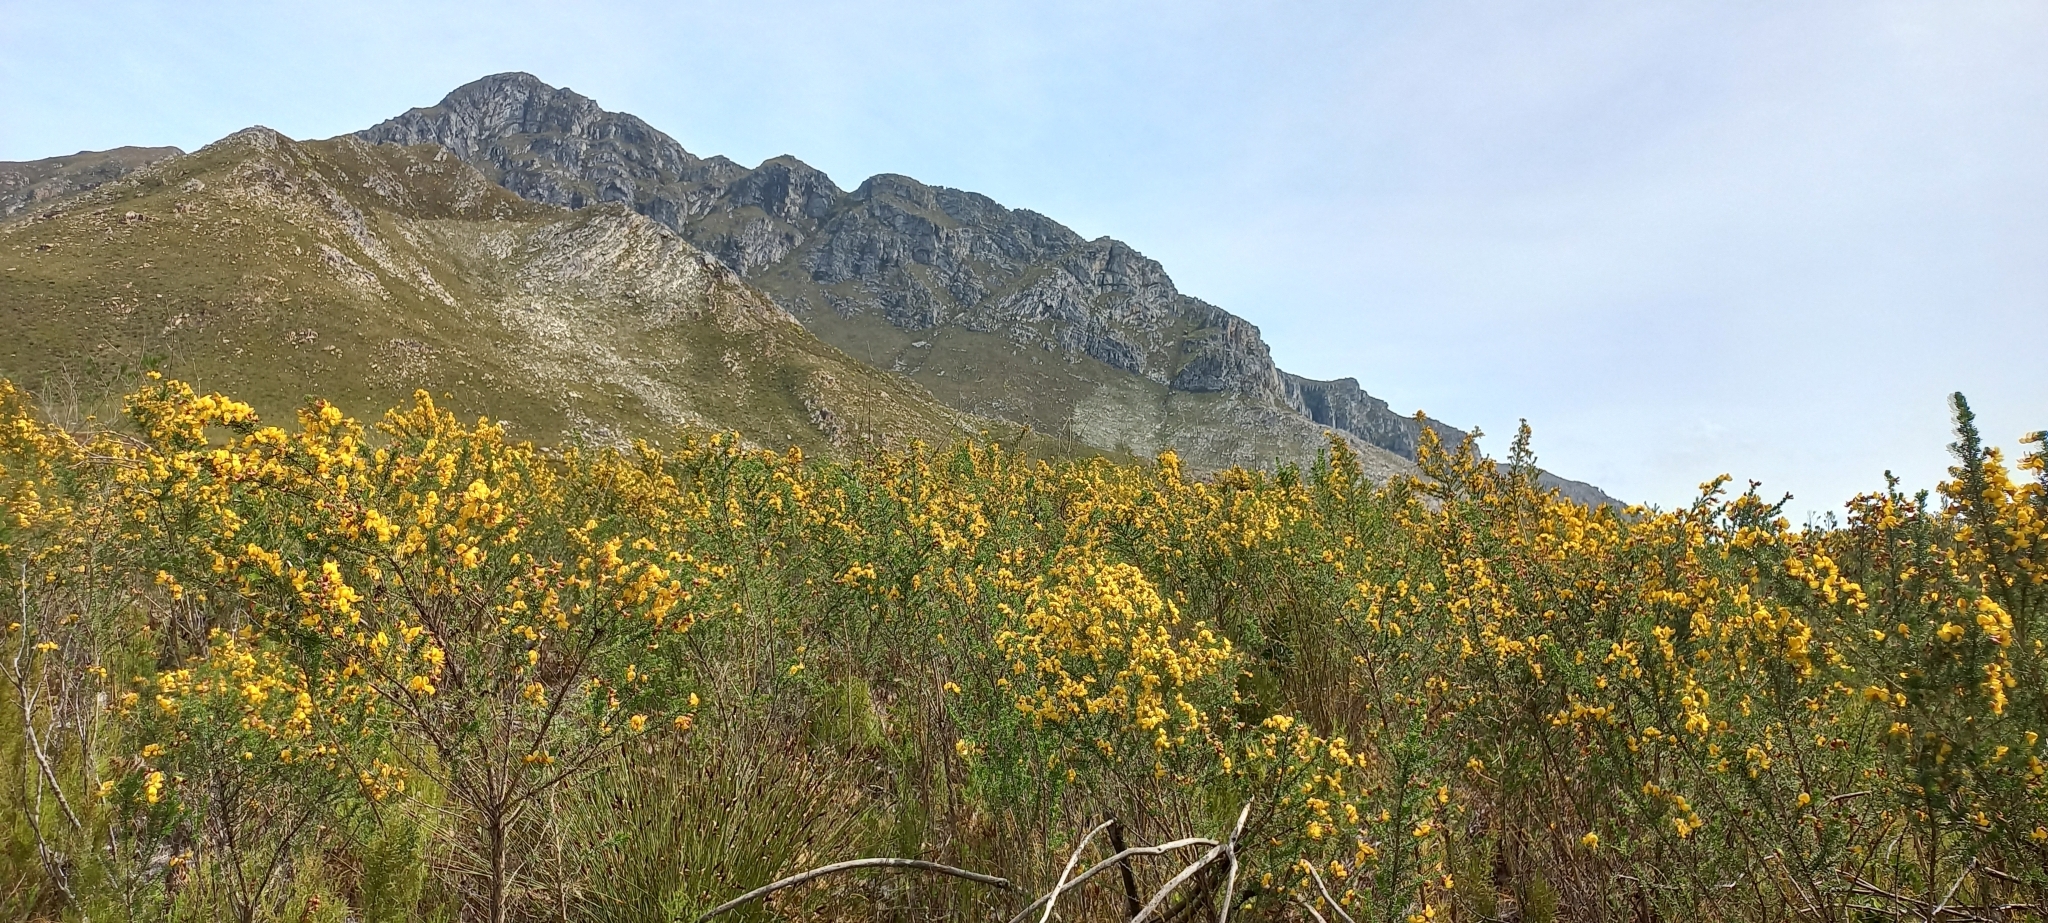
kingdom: Plantae
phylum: Tracheophyta
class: Magnoliopsida
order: Fabales
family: Fabaceae
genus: Aspalathus
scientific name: Aspalathus ciliaris
